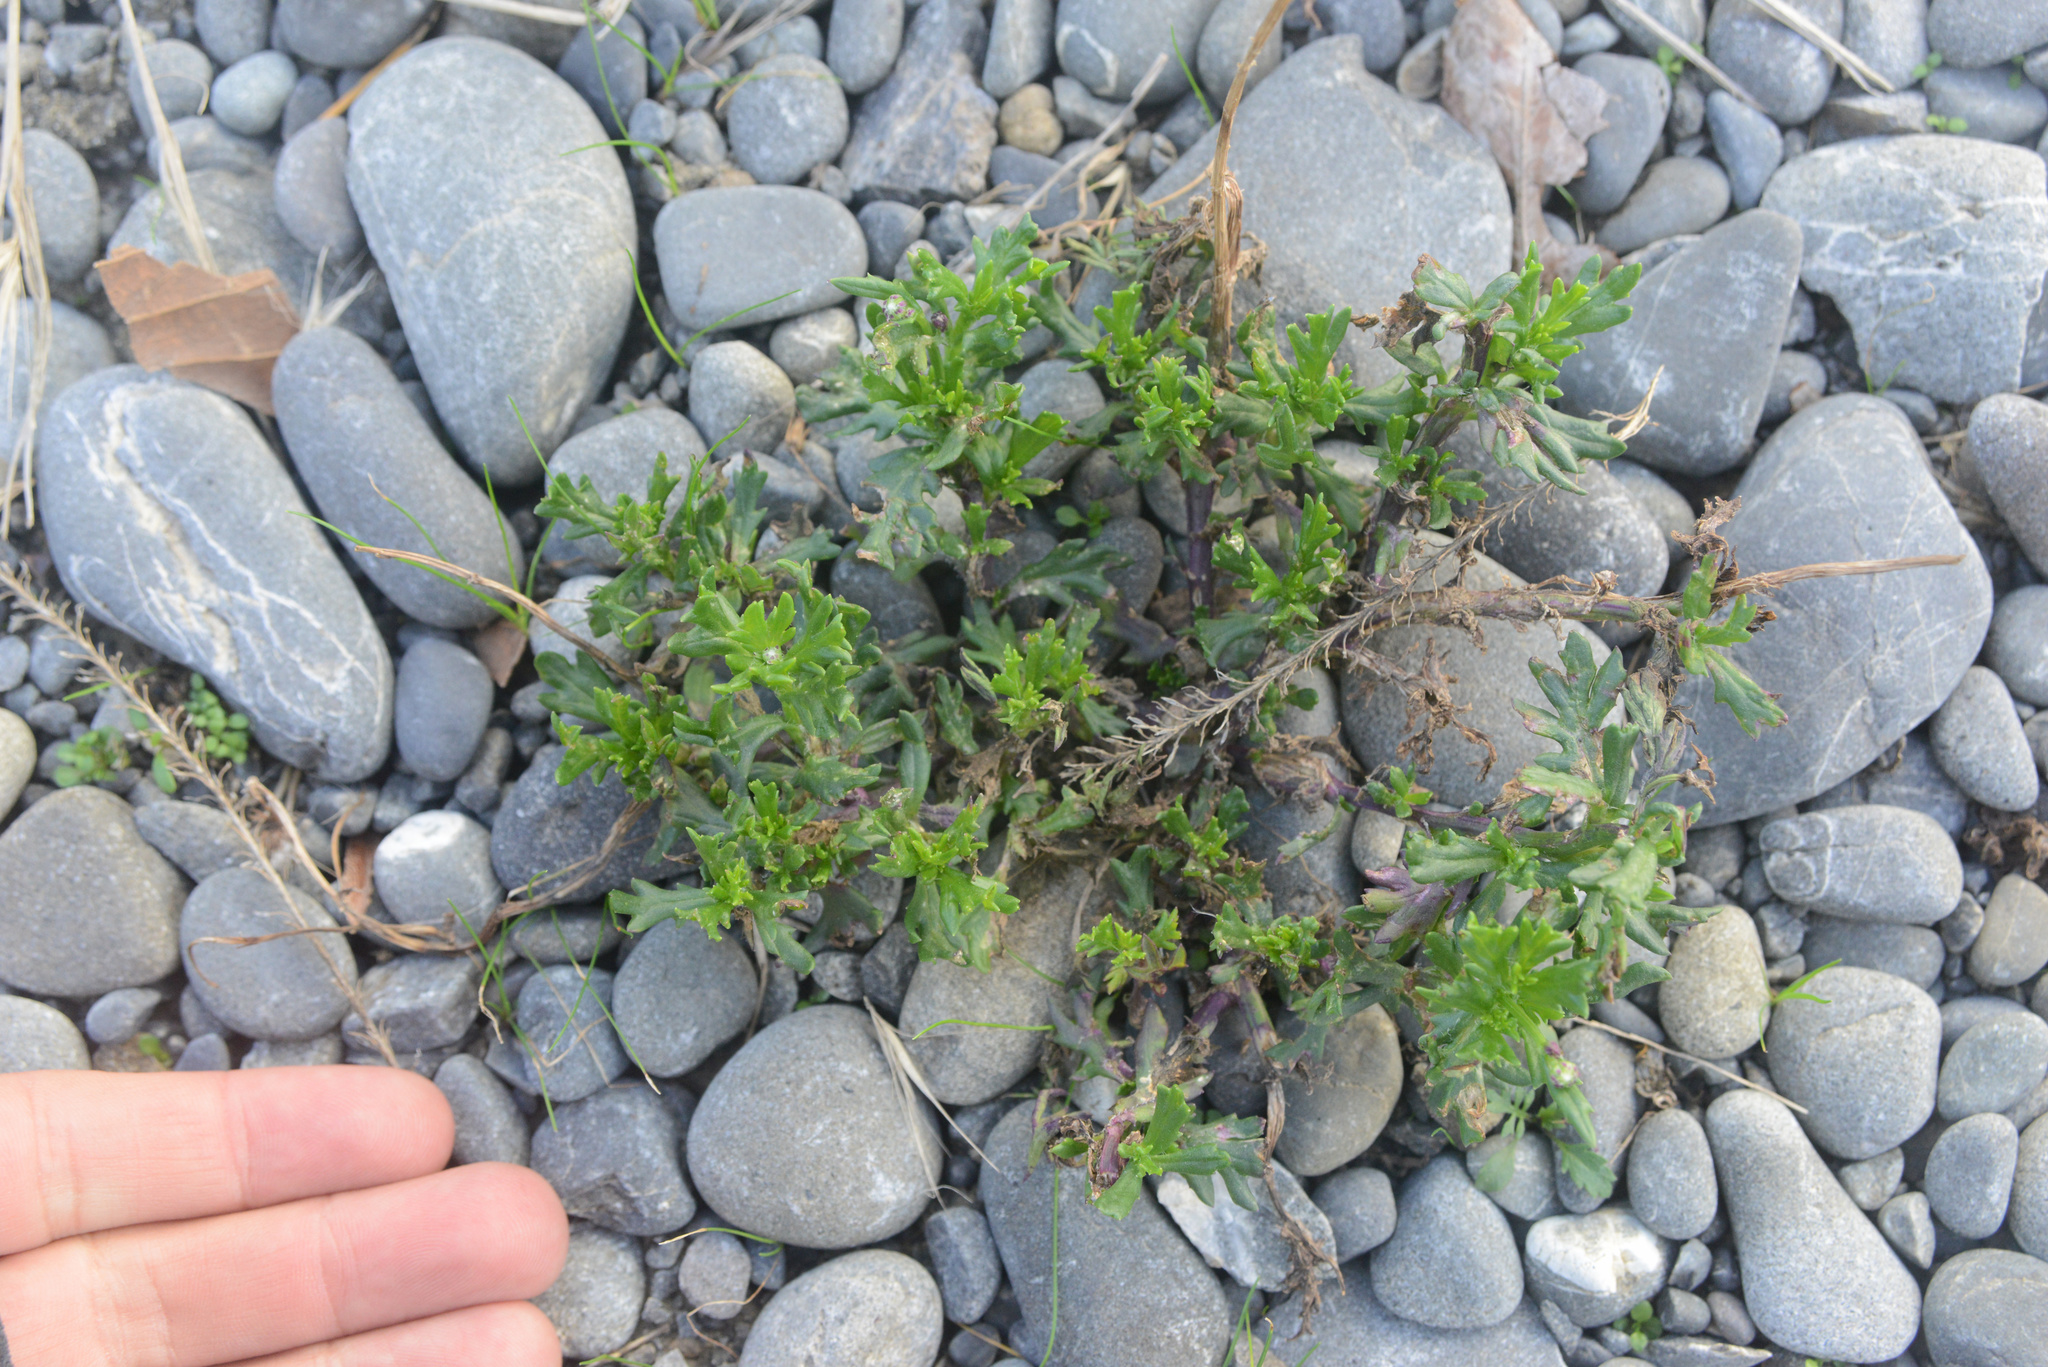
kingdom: Plantae
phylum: Tracheophyta
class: Magnoliopsida
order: Asterales
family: Asteraceae
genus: Senecio
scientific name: Senecio skirrhodon
